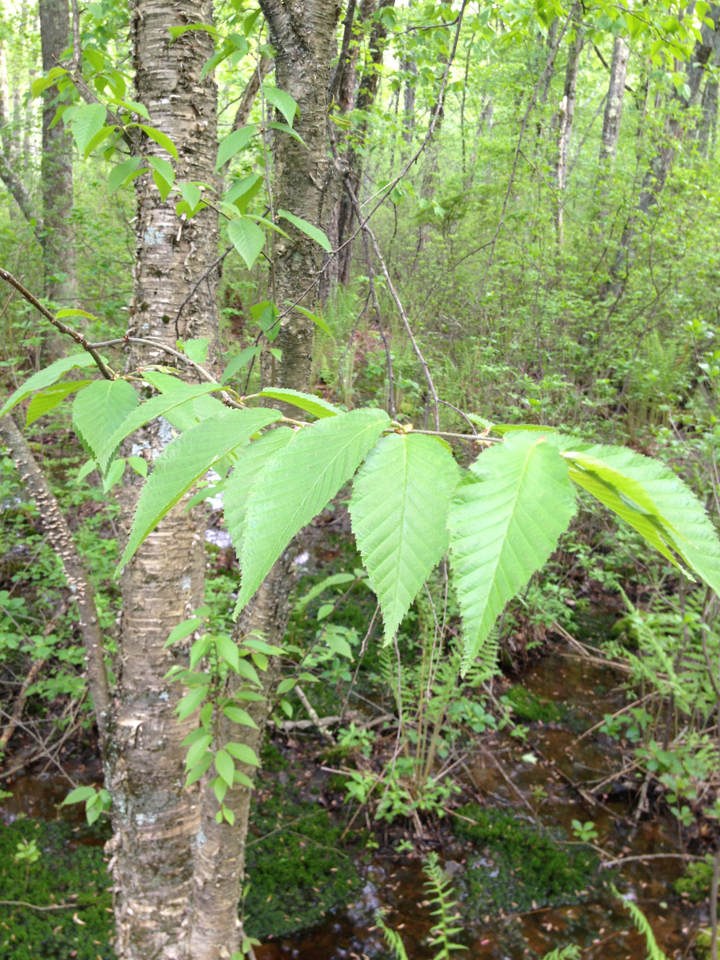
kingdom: Plantae
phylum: Tracheophyta
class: Magnoliopsida
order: Fagales
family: Betulaceae
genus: Betula
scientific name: Betula alleghaniensis
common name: Yellow birch
